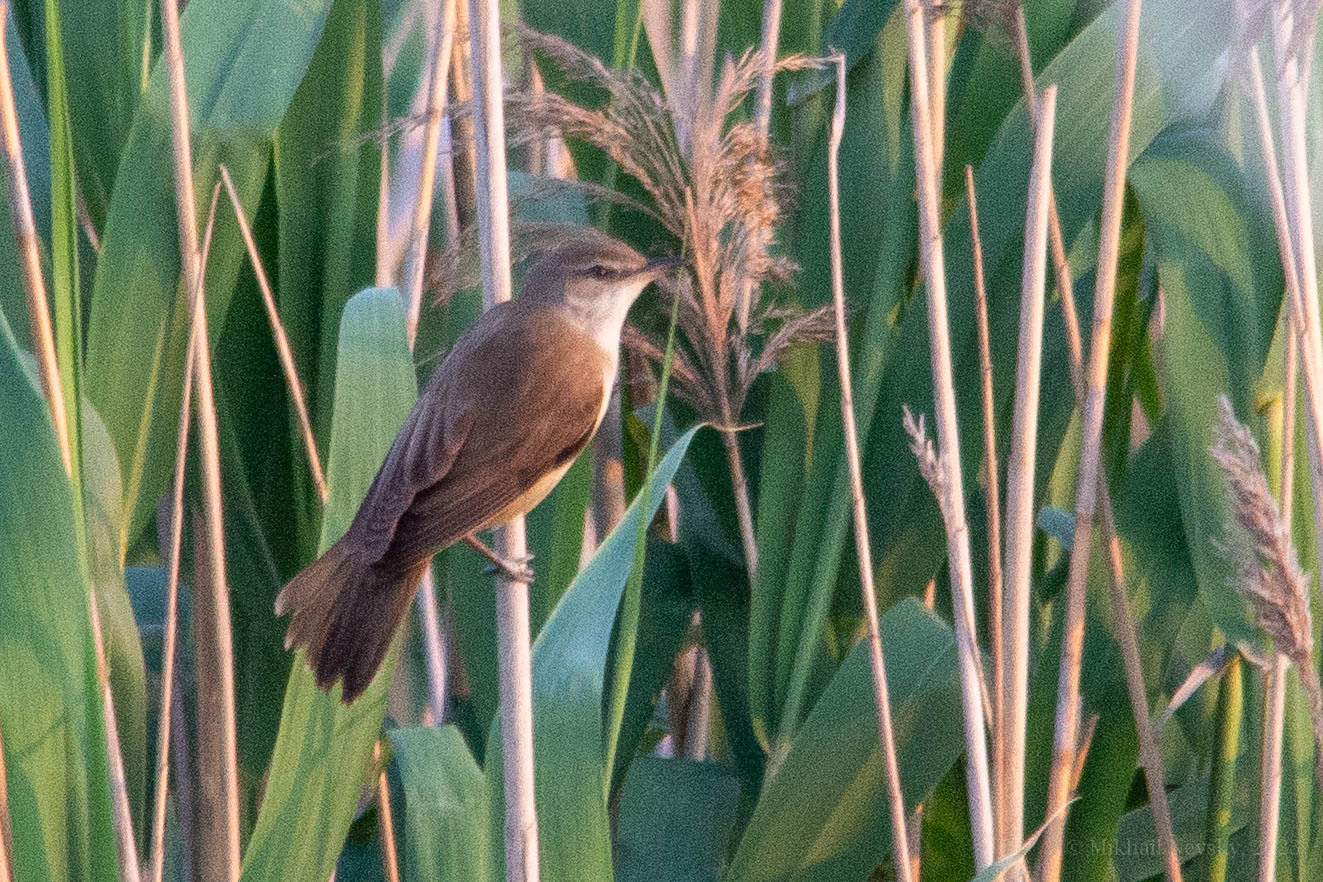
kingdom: Animalia
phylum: Chordata
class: Aves
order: Passeriformes
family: Acrocephalidae
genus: Acrocephalus
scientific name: Acrocephalus arundinaceus
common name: Great reed warbler
